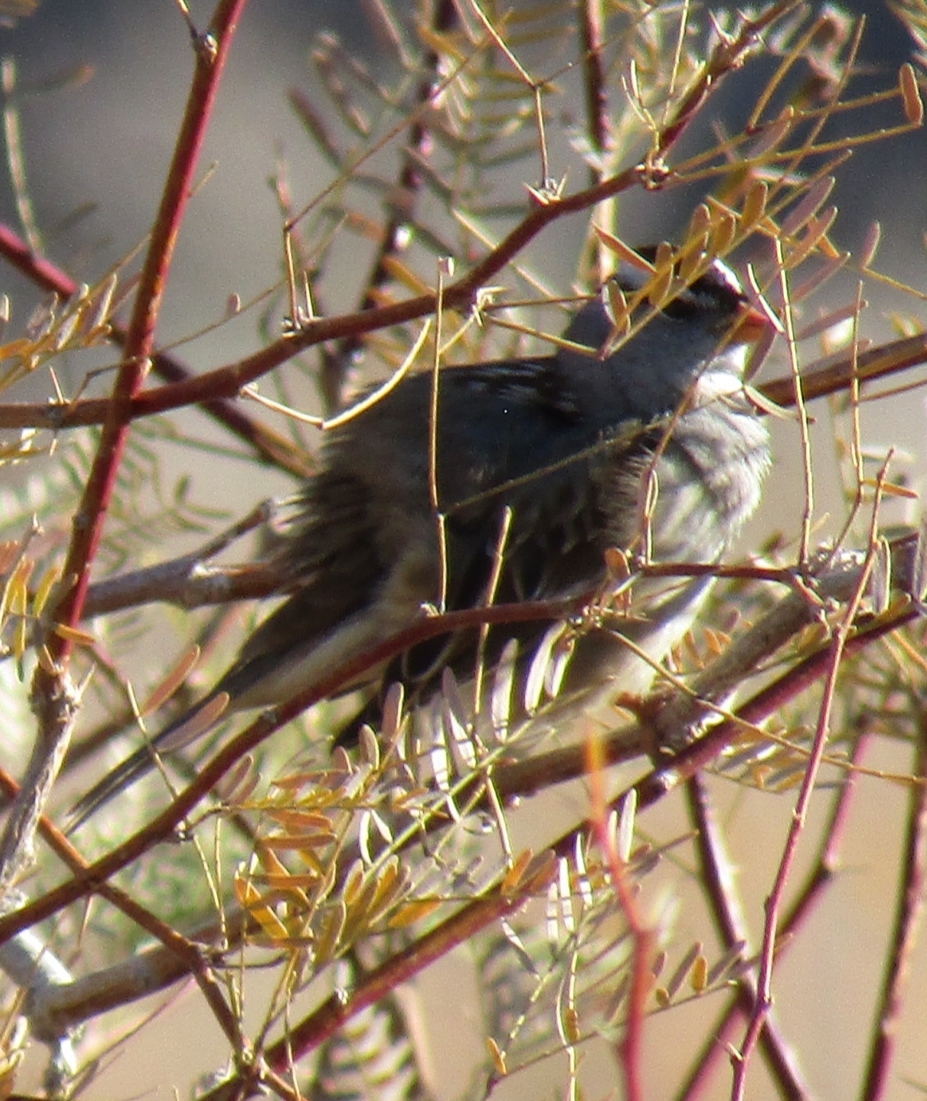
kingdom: Animalia
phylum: Chordata
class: Aves
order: Passeriformes
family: Passerellidae
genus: Zonotrichia
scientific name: Zonotrichia leucophrys
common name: White-crowned sparrow
